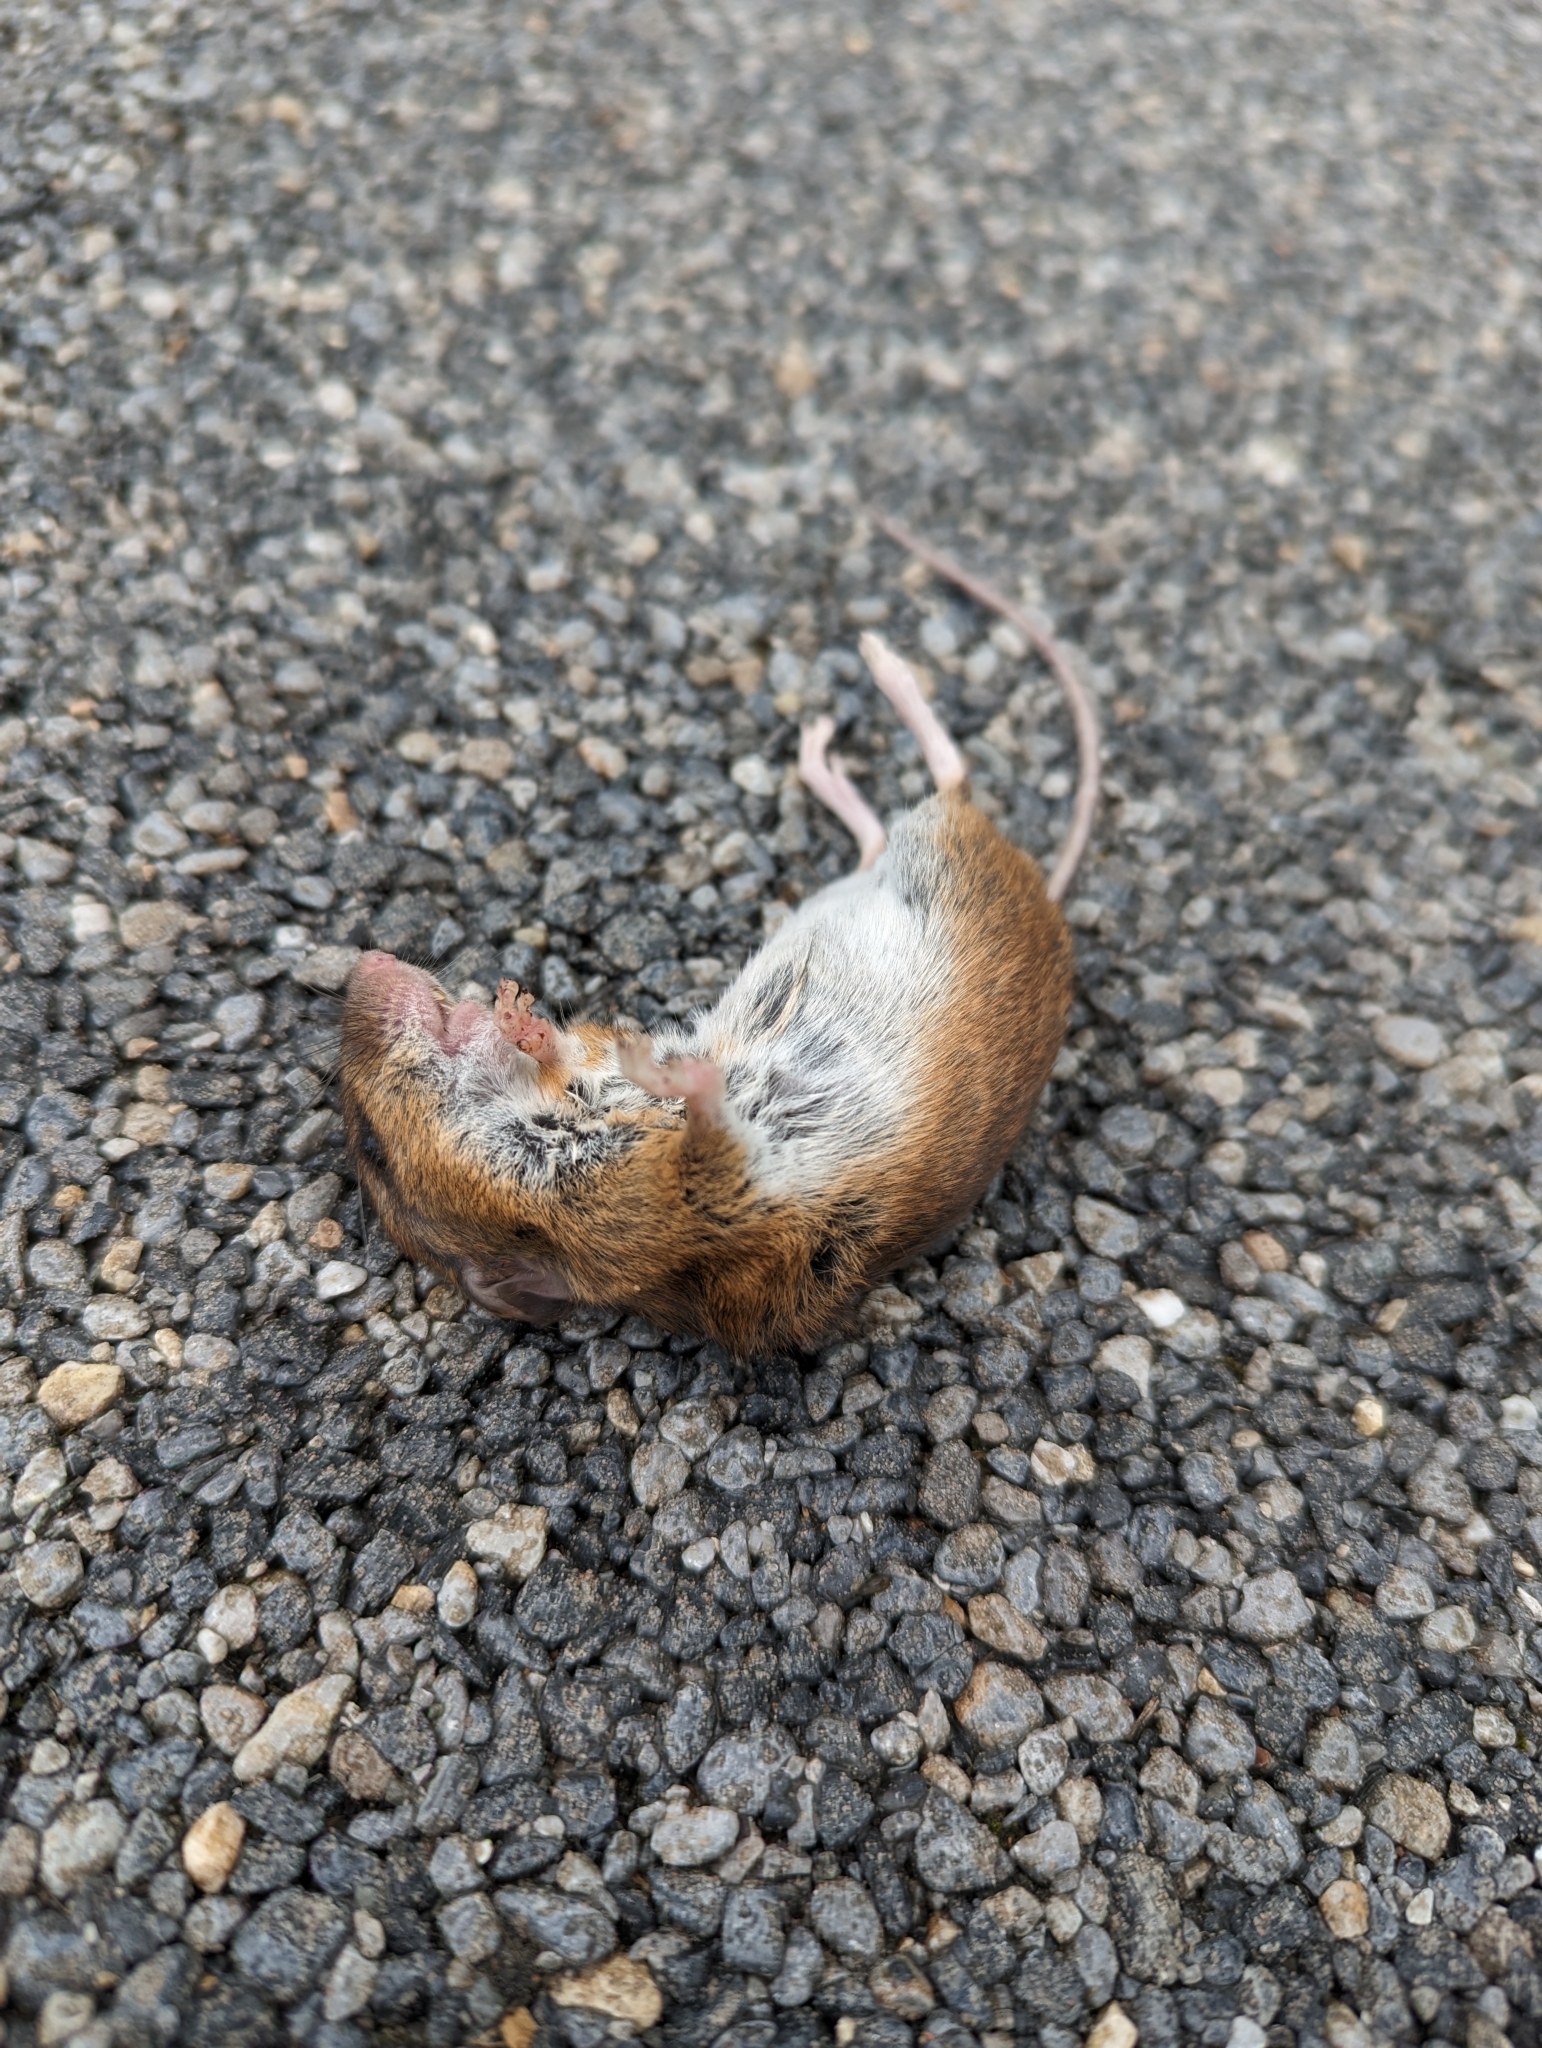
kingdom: Animalia
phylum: Chordata
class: Mammalia
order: Rodentia
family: Muridae
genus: Apodemus
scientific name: Apodemus sylvaticus
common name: Wood mouse
